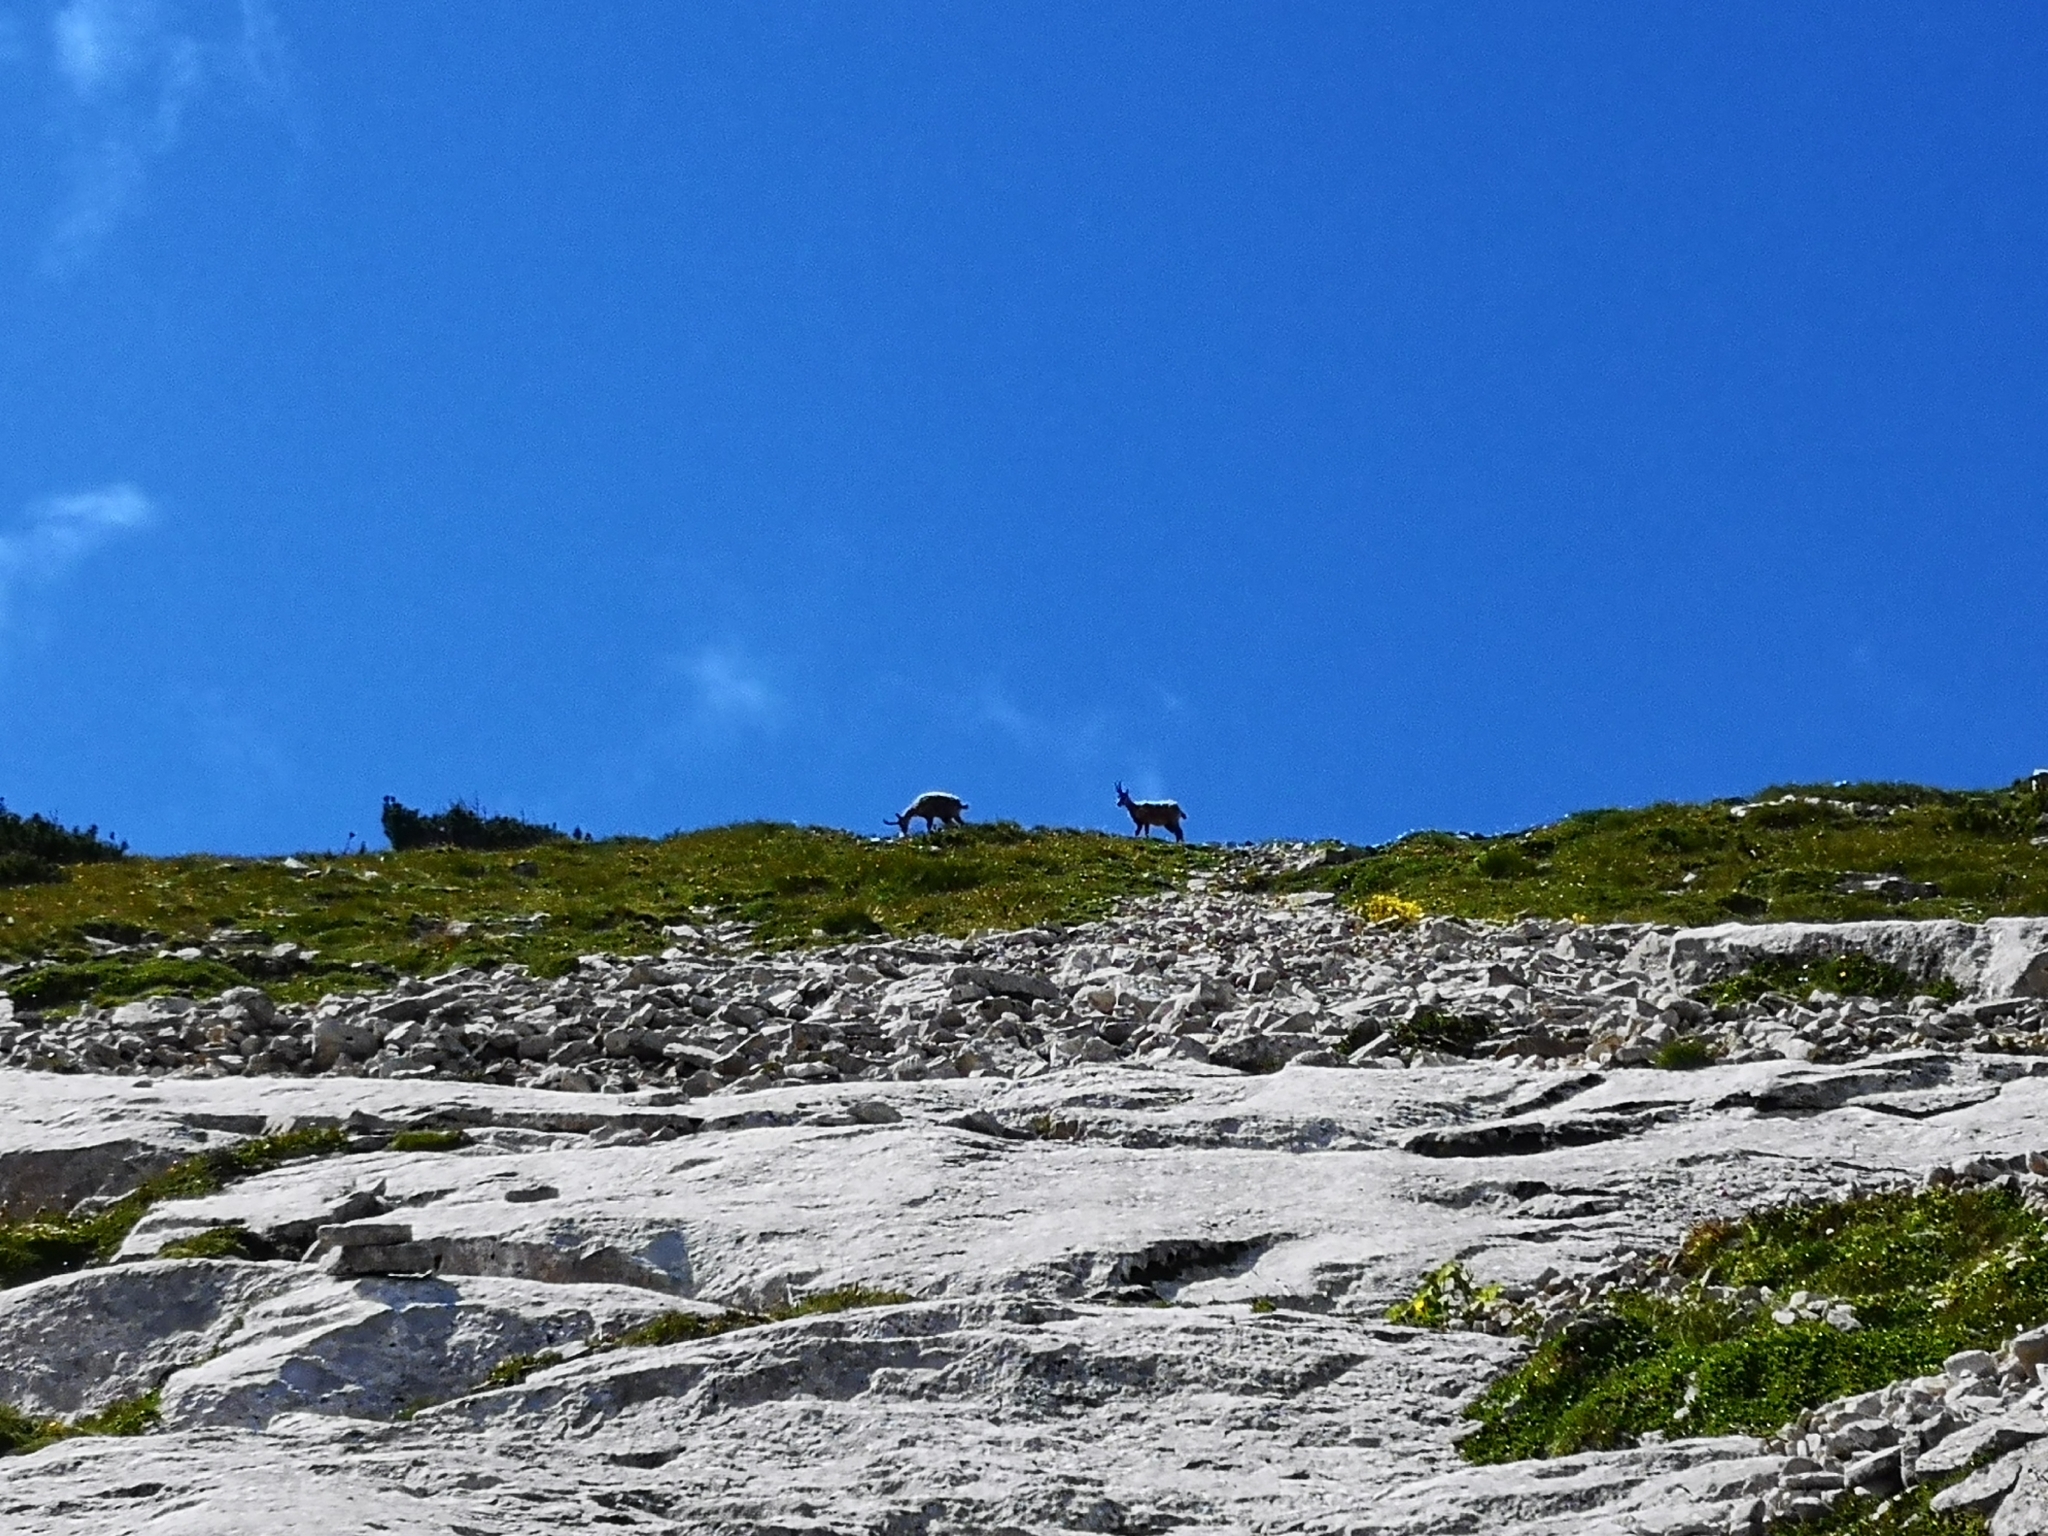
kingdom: Animalia
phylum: Chordata
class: Mammalia
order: Artiodactyla
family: Bovidae
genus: Rupicapra
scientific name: Rupicapra pyrenaica
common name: Pyrenean chamois
